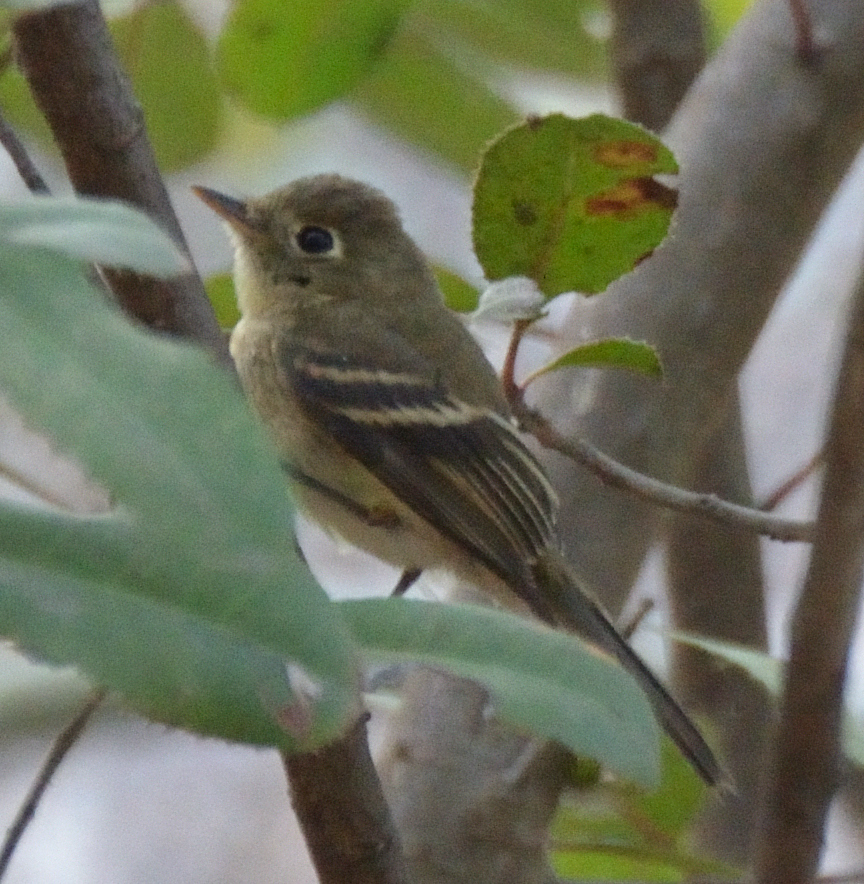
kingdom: Animalia
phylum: Chordata
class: Aves
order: Passeriformes
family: Tyrannidae
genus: Empidonax
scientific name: Empidonax difficilis
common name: Pacific-slope flycatcher
